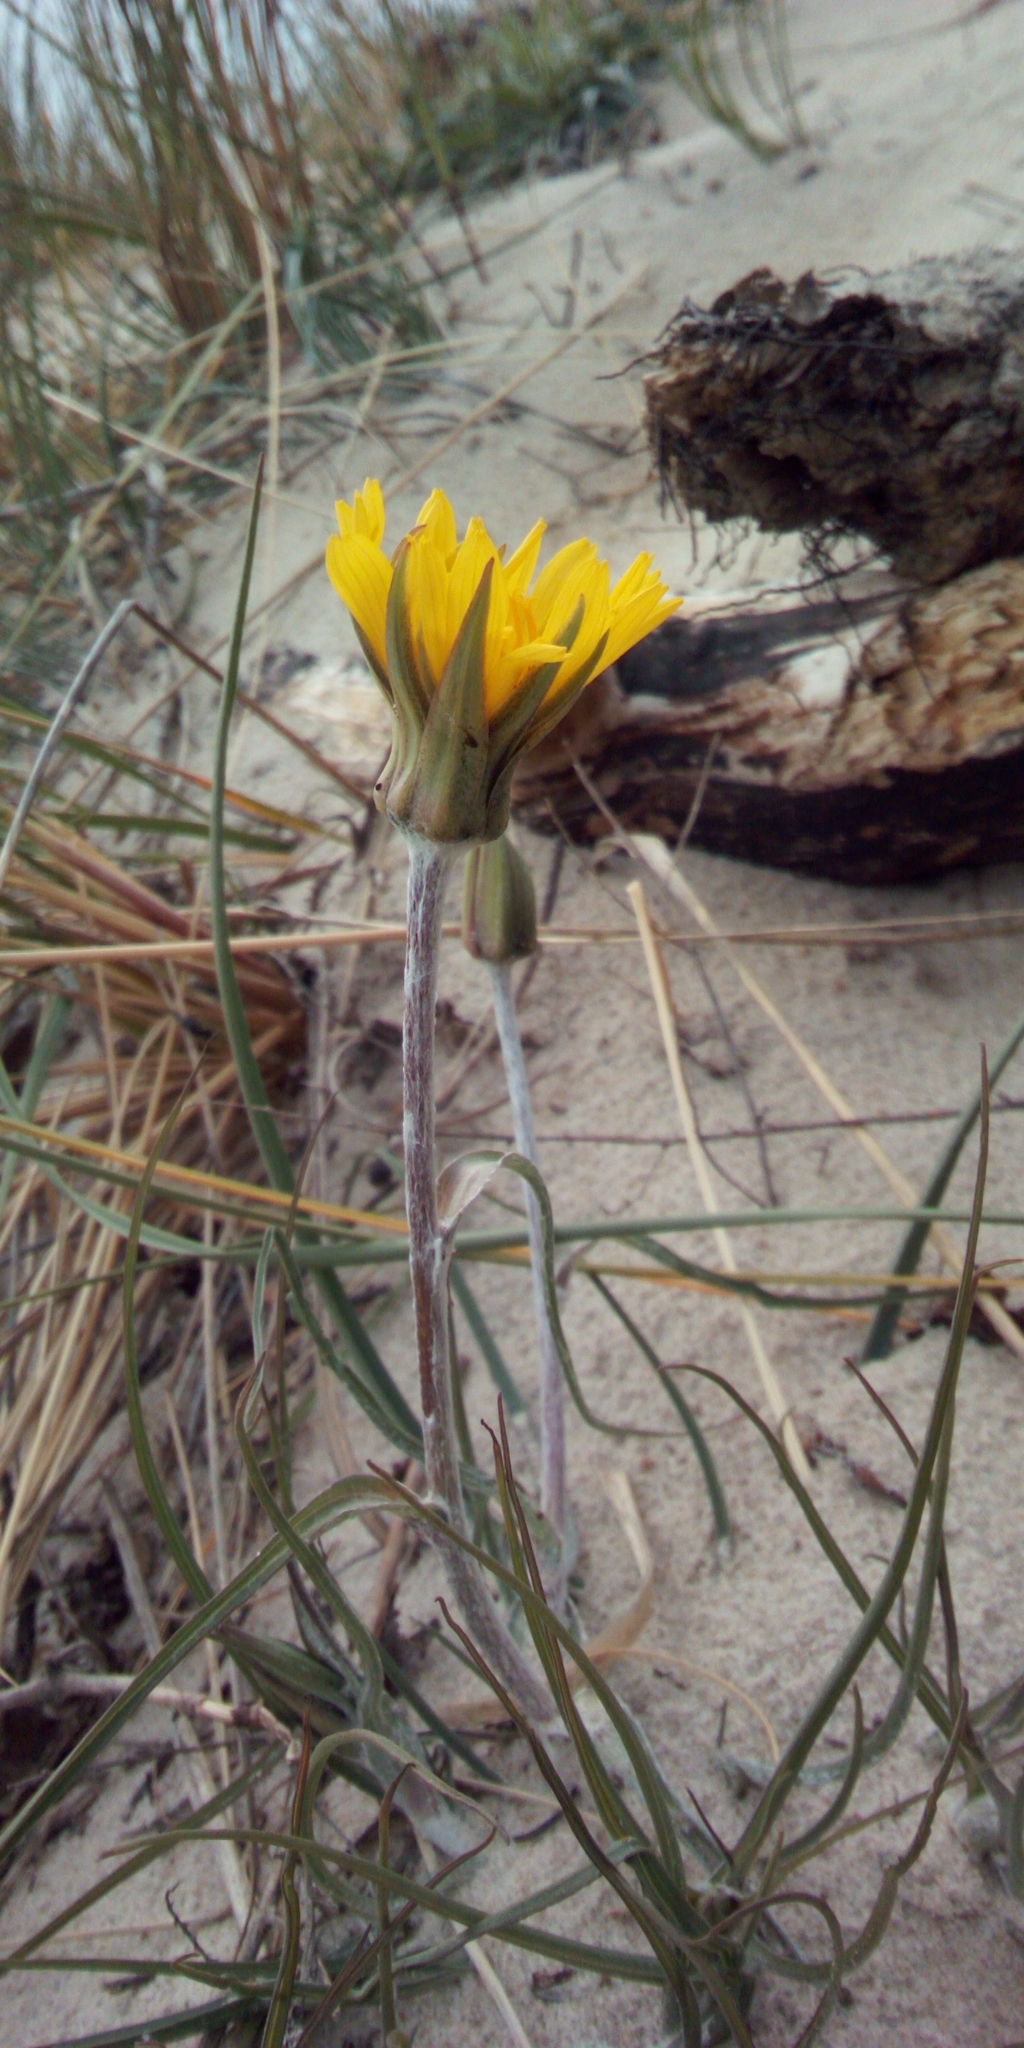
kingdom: Plantae
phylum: Tracheophyta
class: Magnoliopsida
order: Asterales
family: Asteraceae
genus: Tragopogon
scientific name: Tragopogon heterospermus
